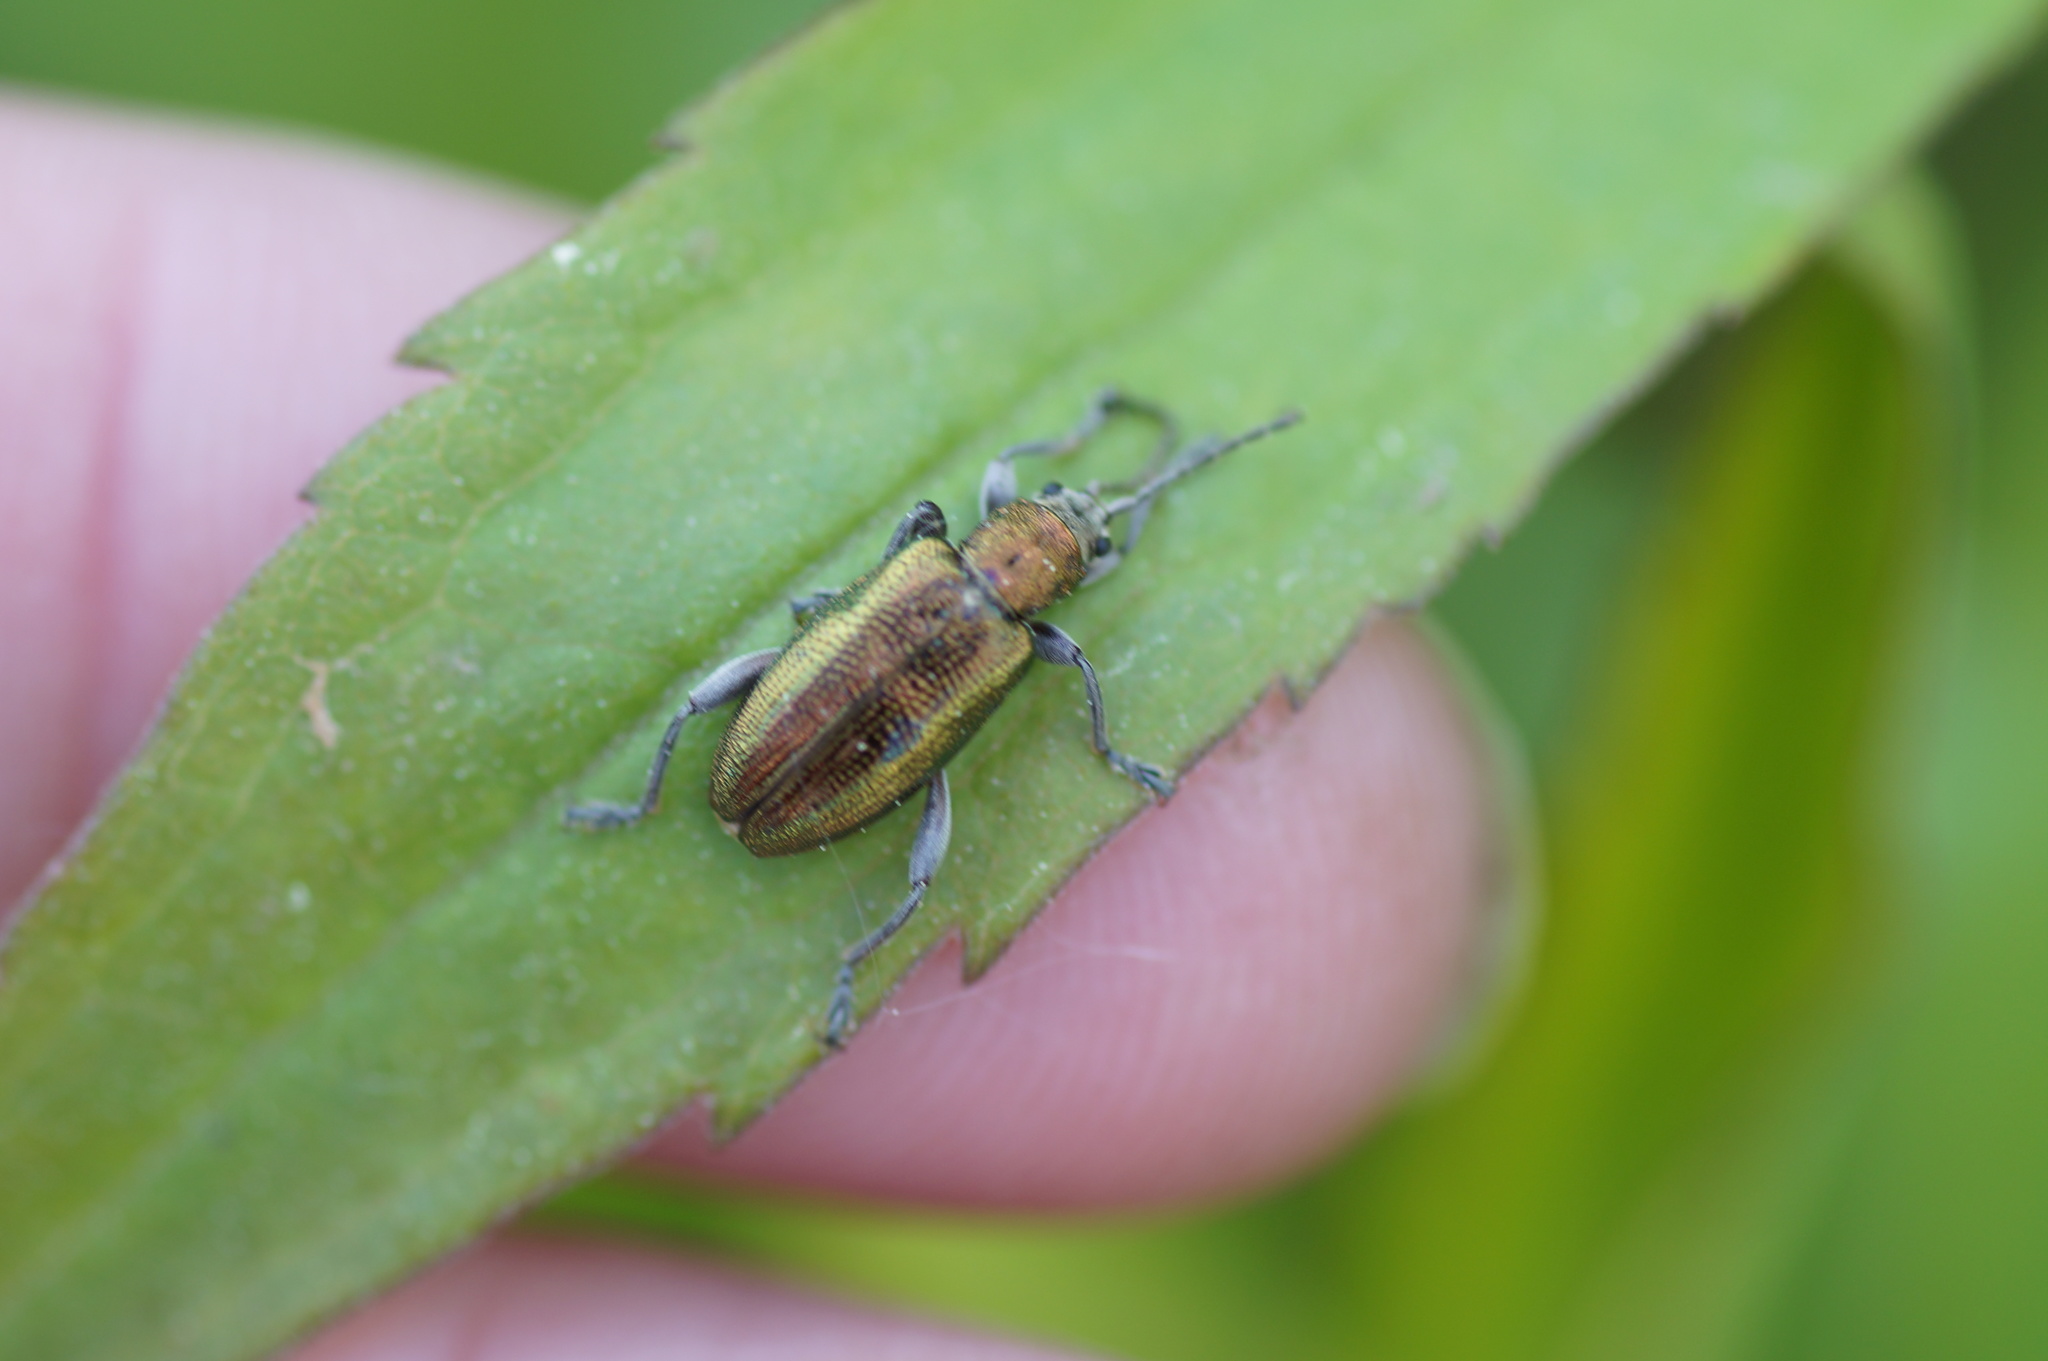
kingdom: Animalia
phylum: Arthropoda
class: Insecta
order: Coleoptera
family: Chrysomelidae
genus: Donacia
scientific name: Donacia semicuprea
